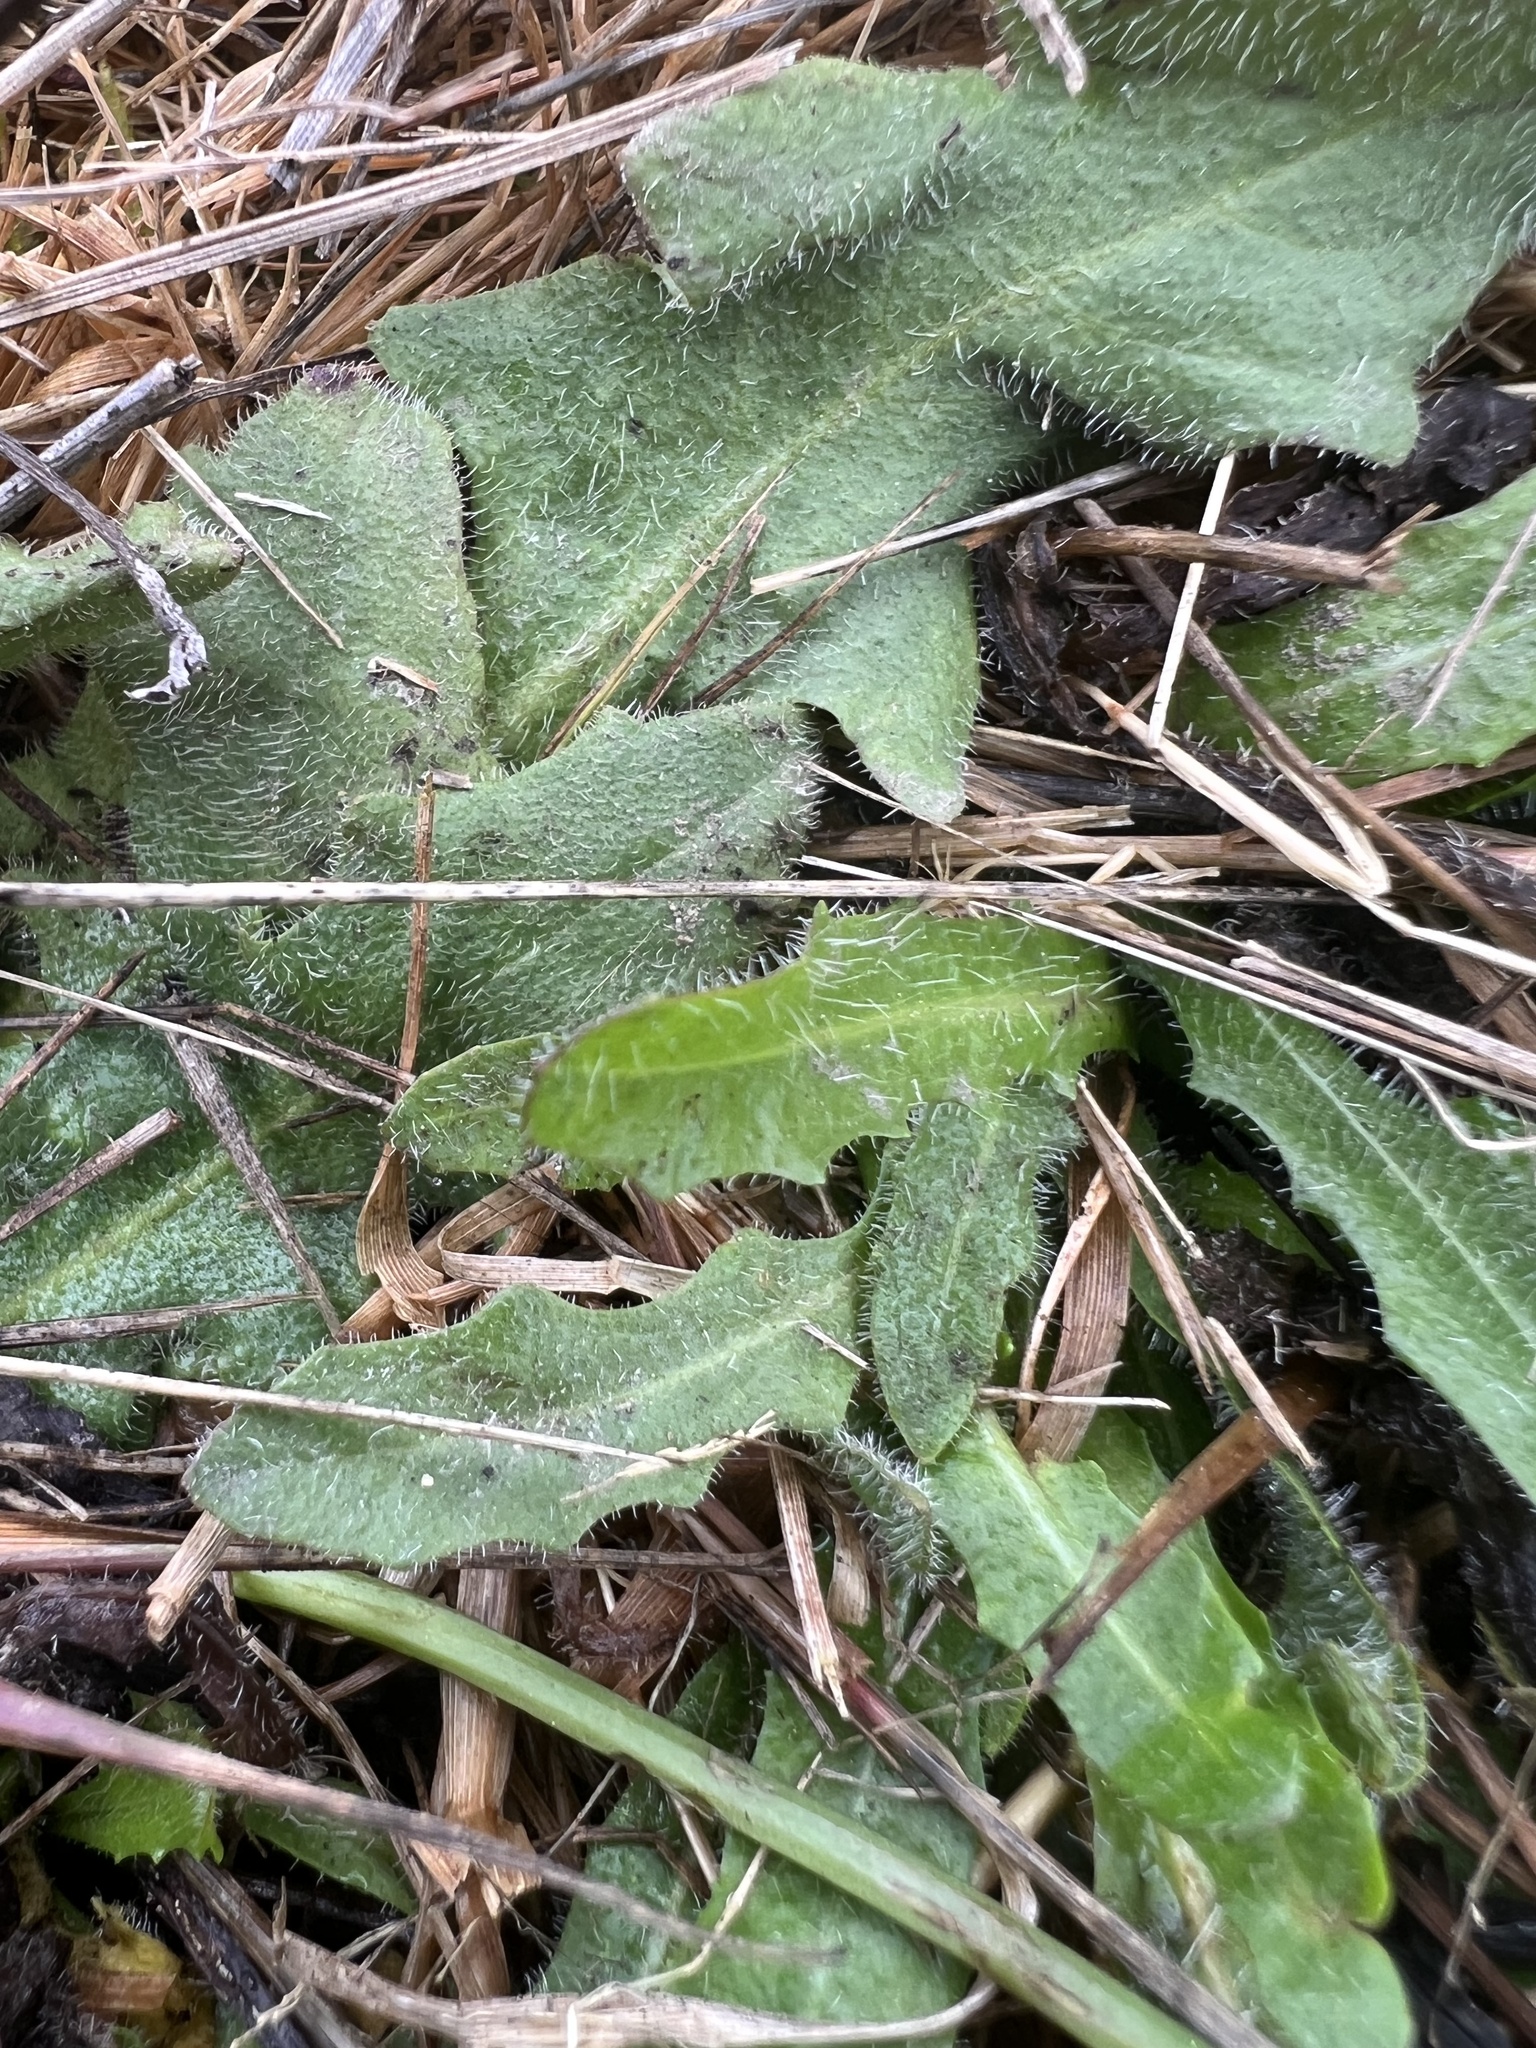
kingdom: Plantae
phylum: Tracheophyta
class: Magnoliopsida
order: Asterales
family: Asteraceae
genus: Hypochaeris
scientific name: Hypochaeris radicata
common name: Flatweed
